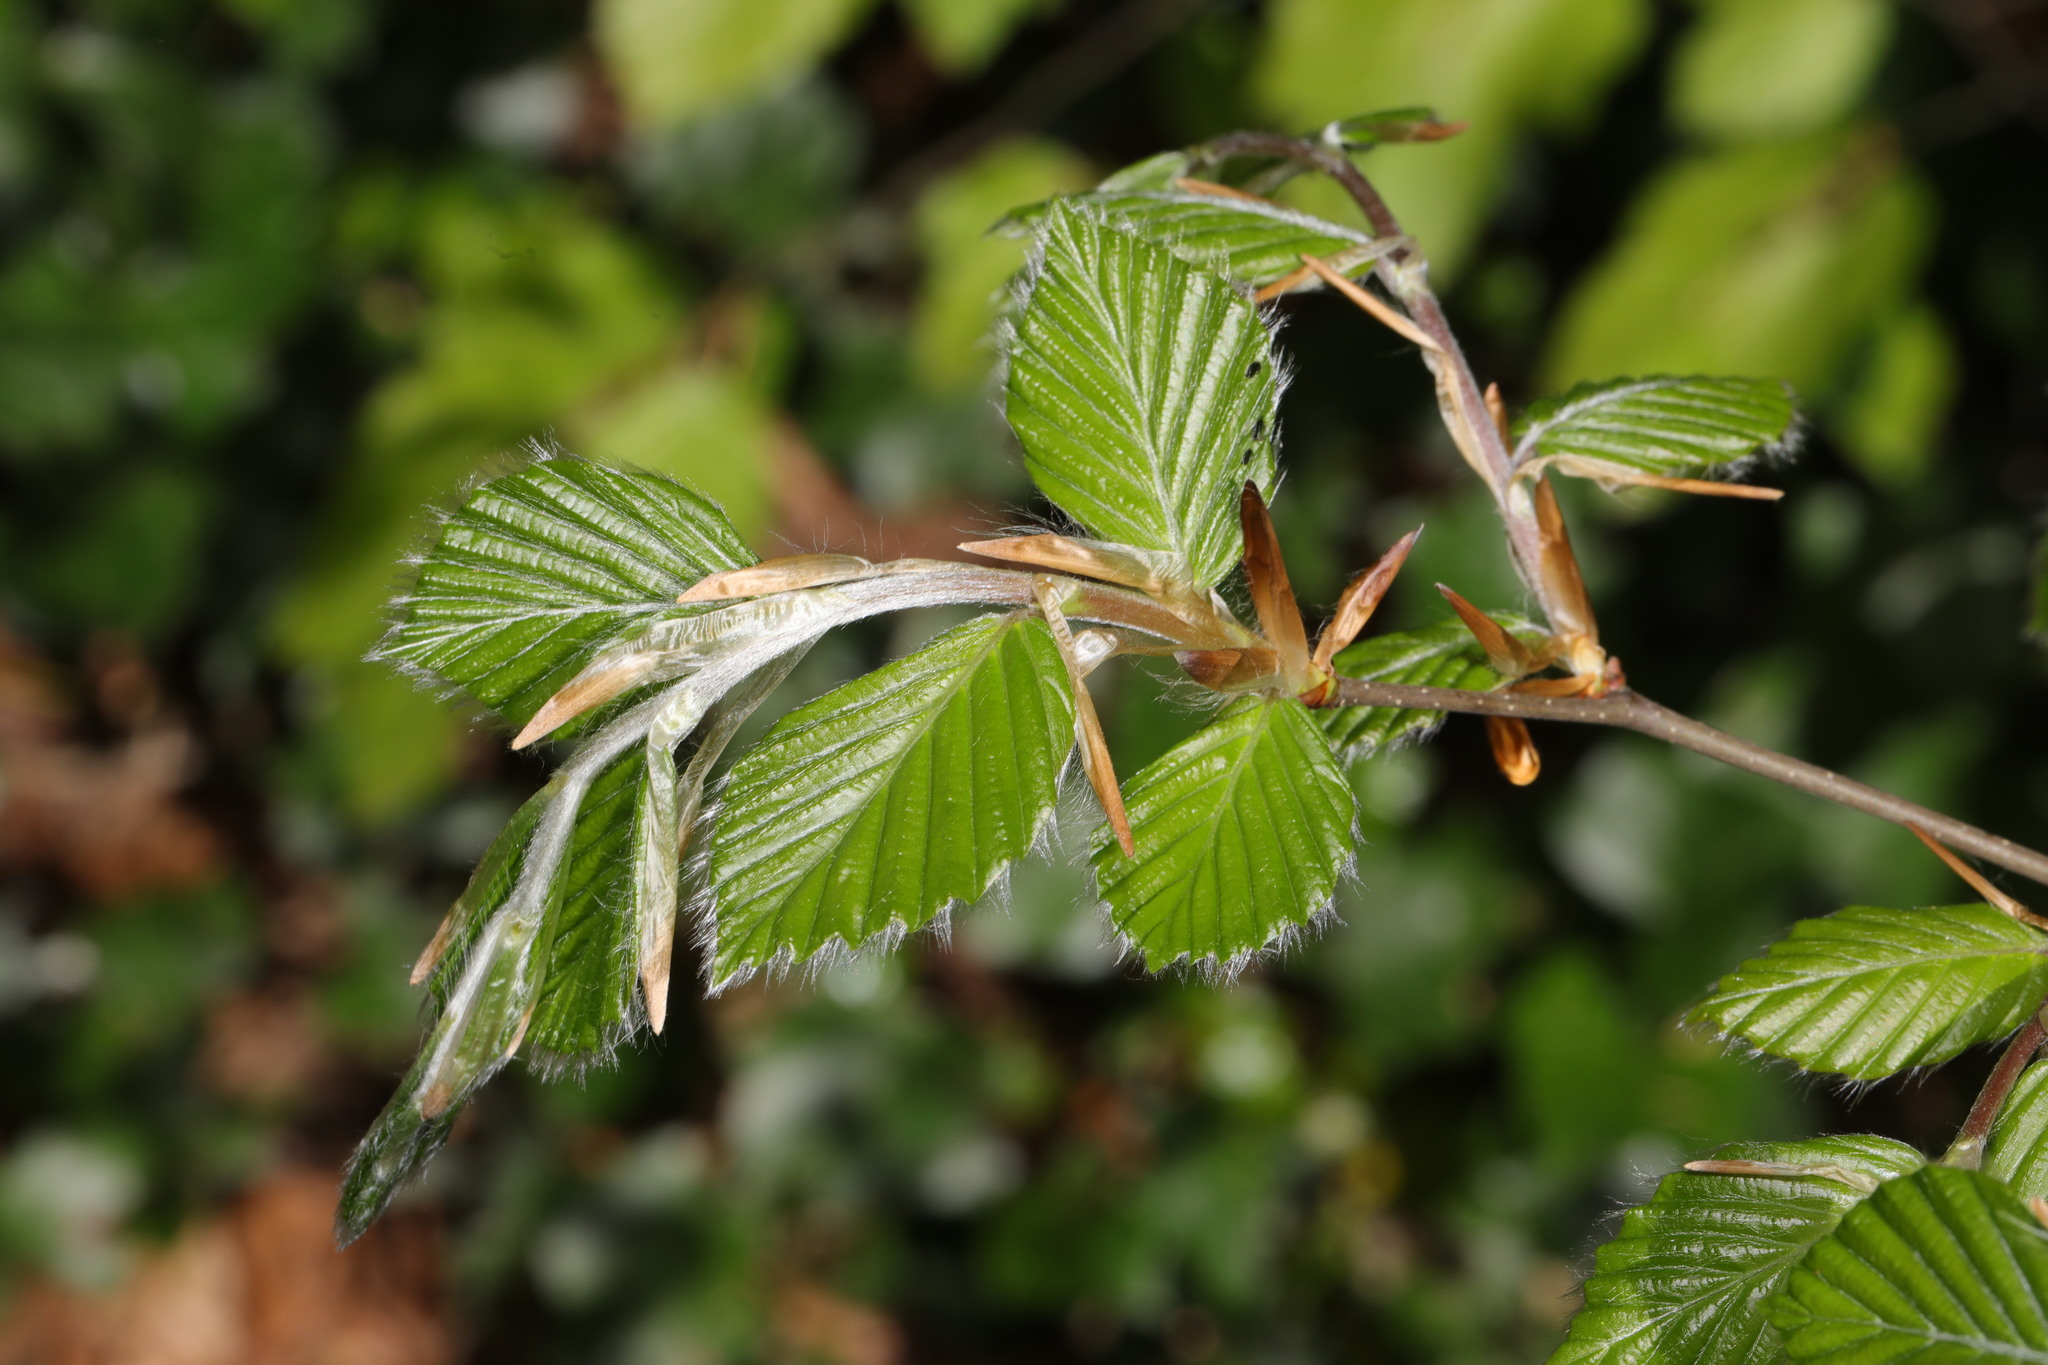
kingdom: Plantae
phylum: Tracheophyta
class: Magnoliopsida
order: Fagales
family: Fagaceae
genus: Fagus
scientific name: Fagus sylvatica
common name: Beech
